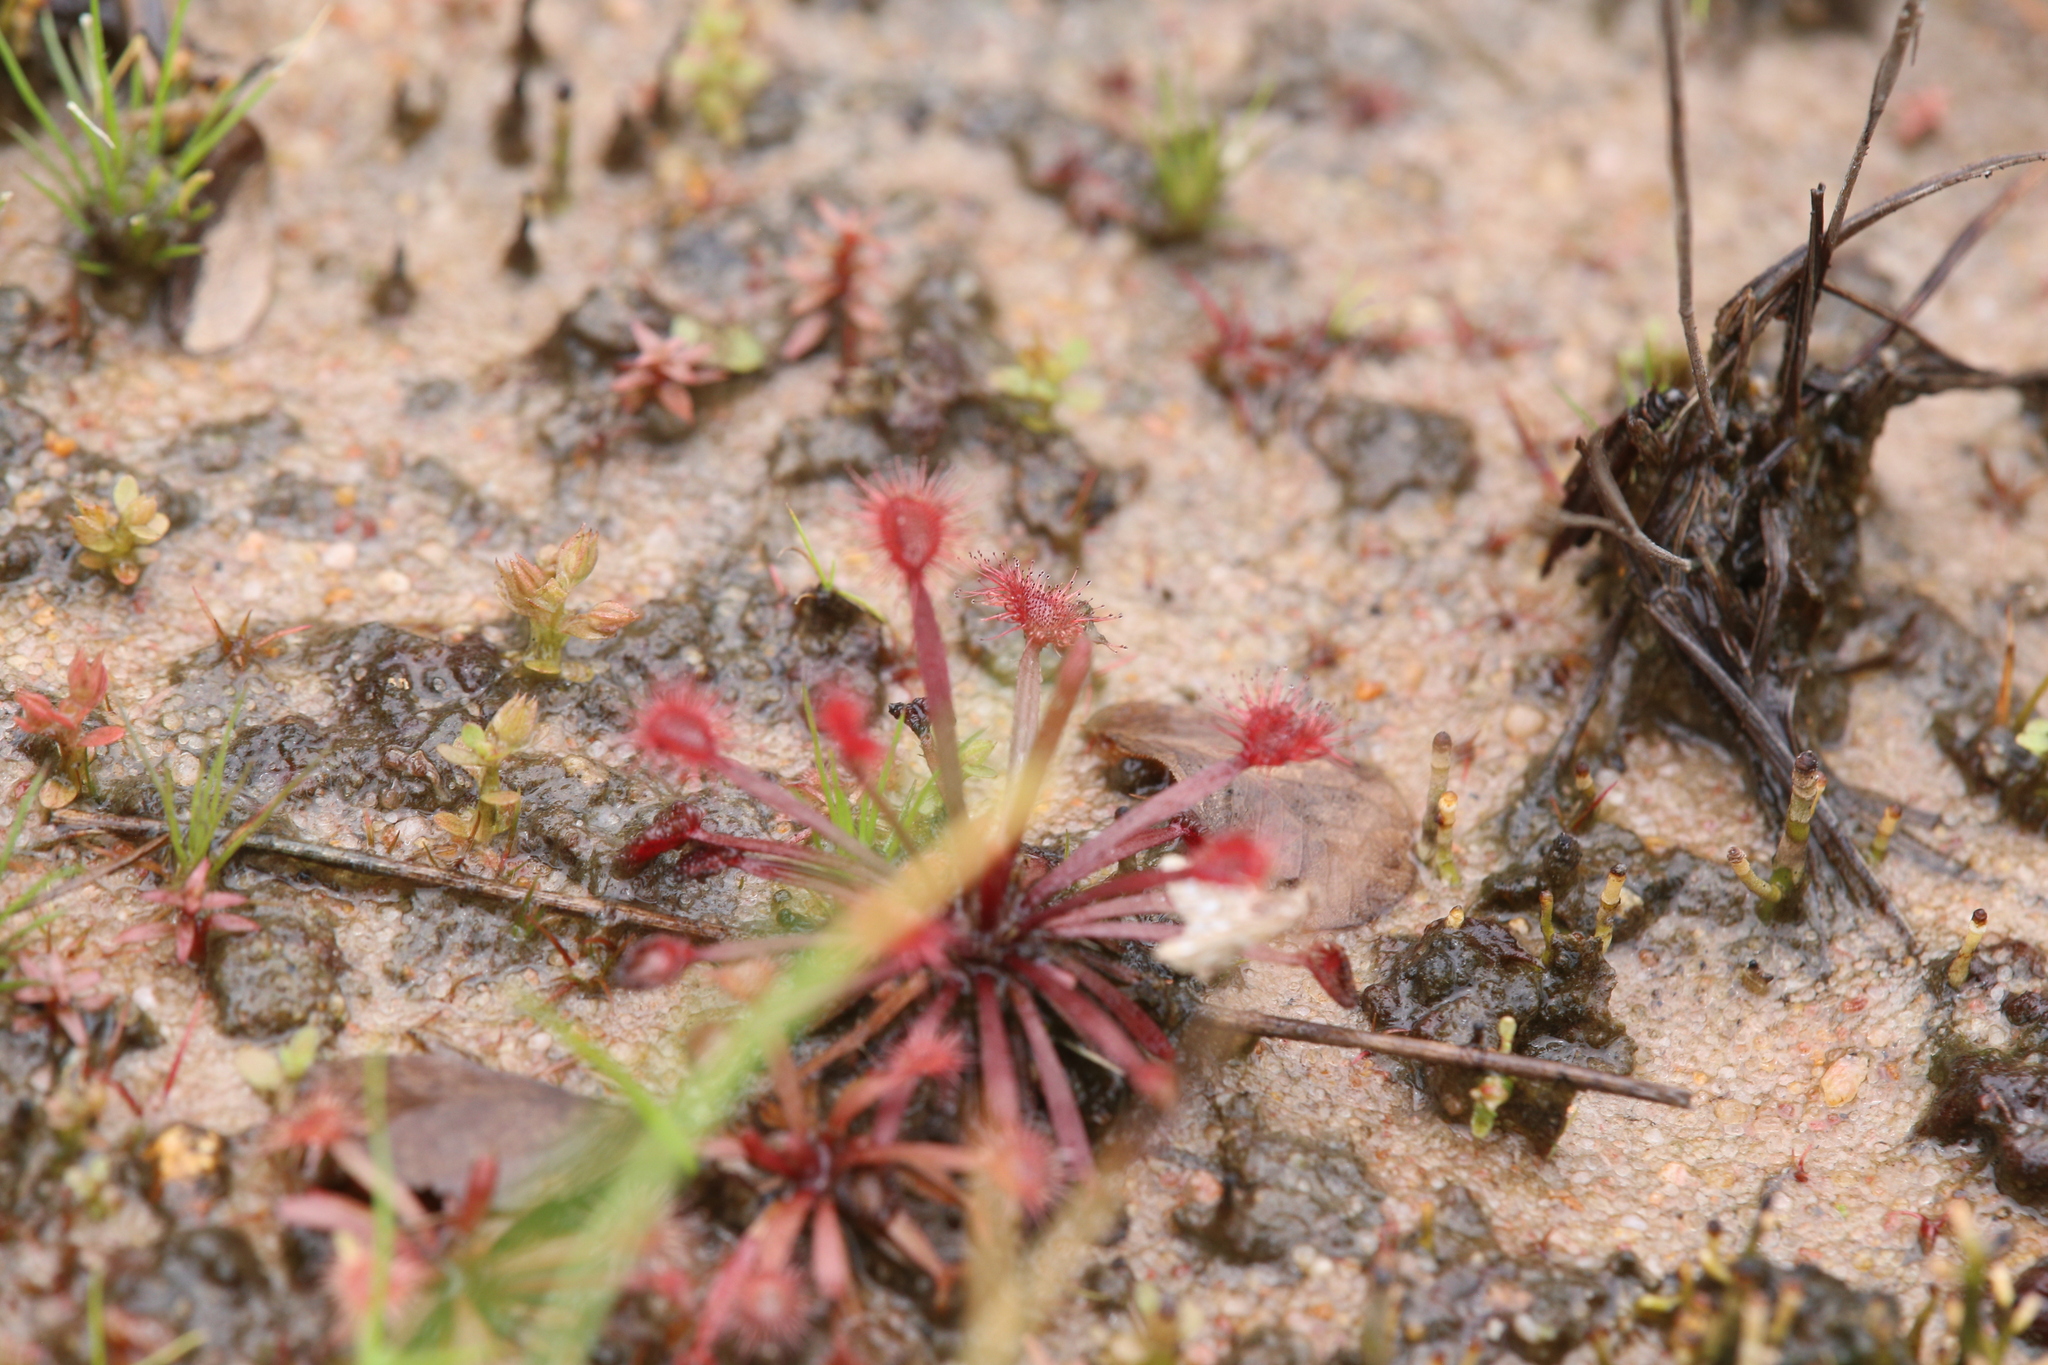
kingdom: Plantae
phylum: Tracheophyta
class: Magnoliopsida
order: Caryophyllales
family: Droseraceae
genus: Drosera
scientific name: Drosera dilatatopetiolaris
